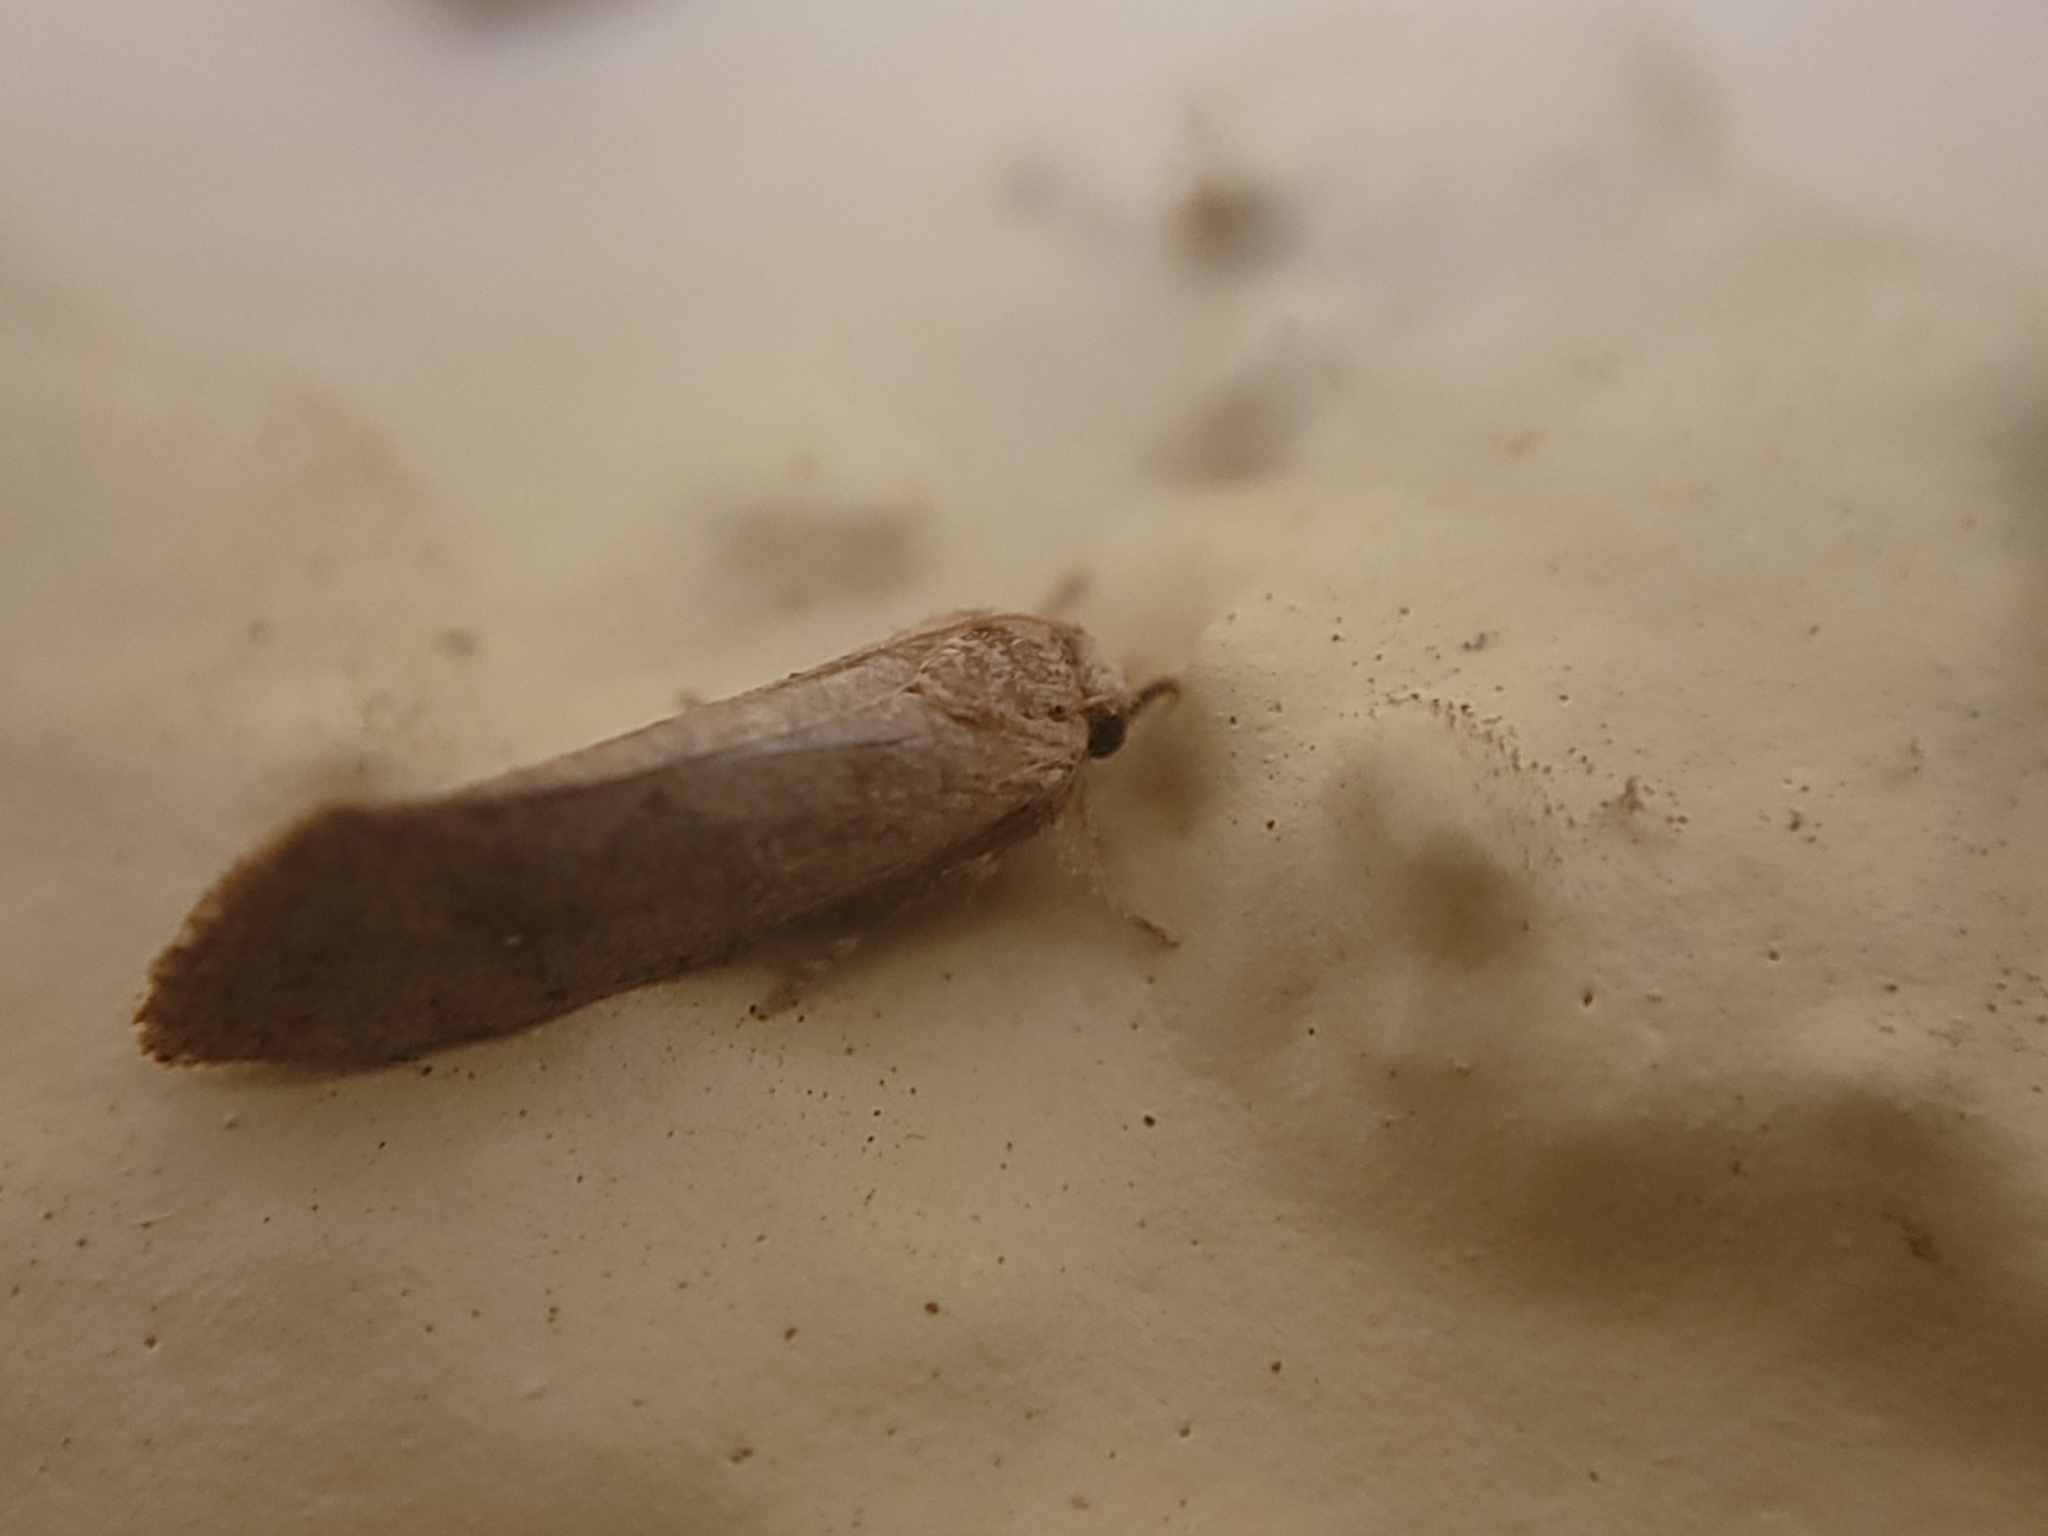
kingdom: Animalia
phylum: Arthropoda
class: Insecta
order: Lepidoptera
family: Tineidae
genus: Acrolophus
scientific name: Acrolophus walsinghami
